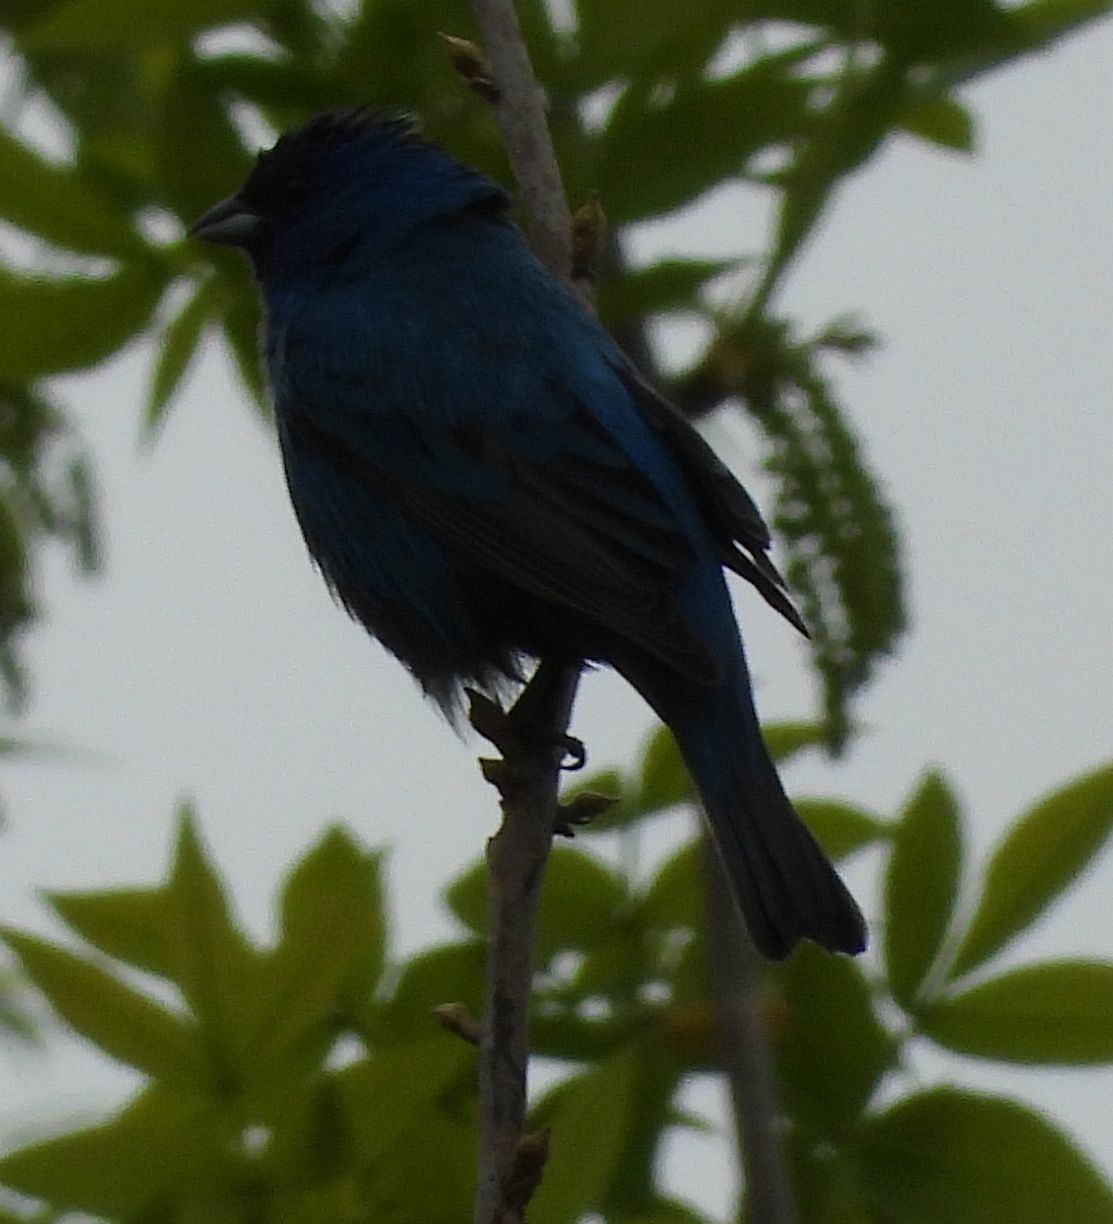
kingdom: Animalia
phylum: Chordata
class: Aves
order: Passeriformes
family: Cardinalidae
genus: Passerina
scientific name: Passerina cyanea
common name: Indigo bunting
